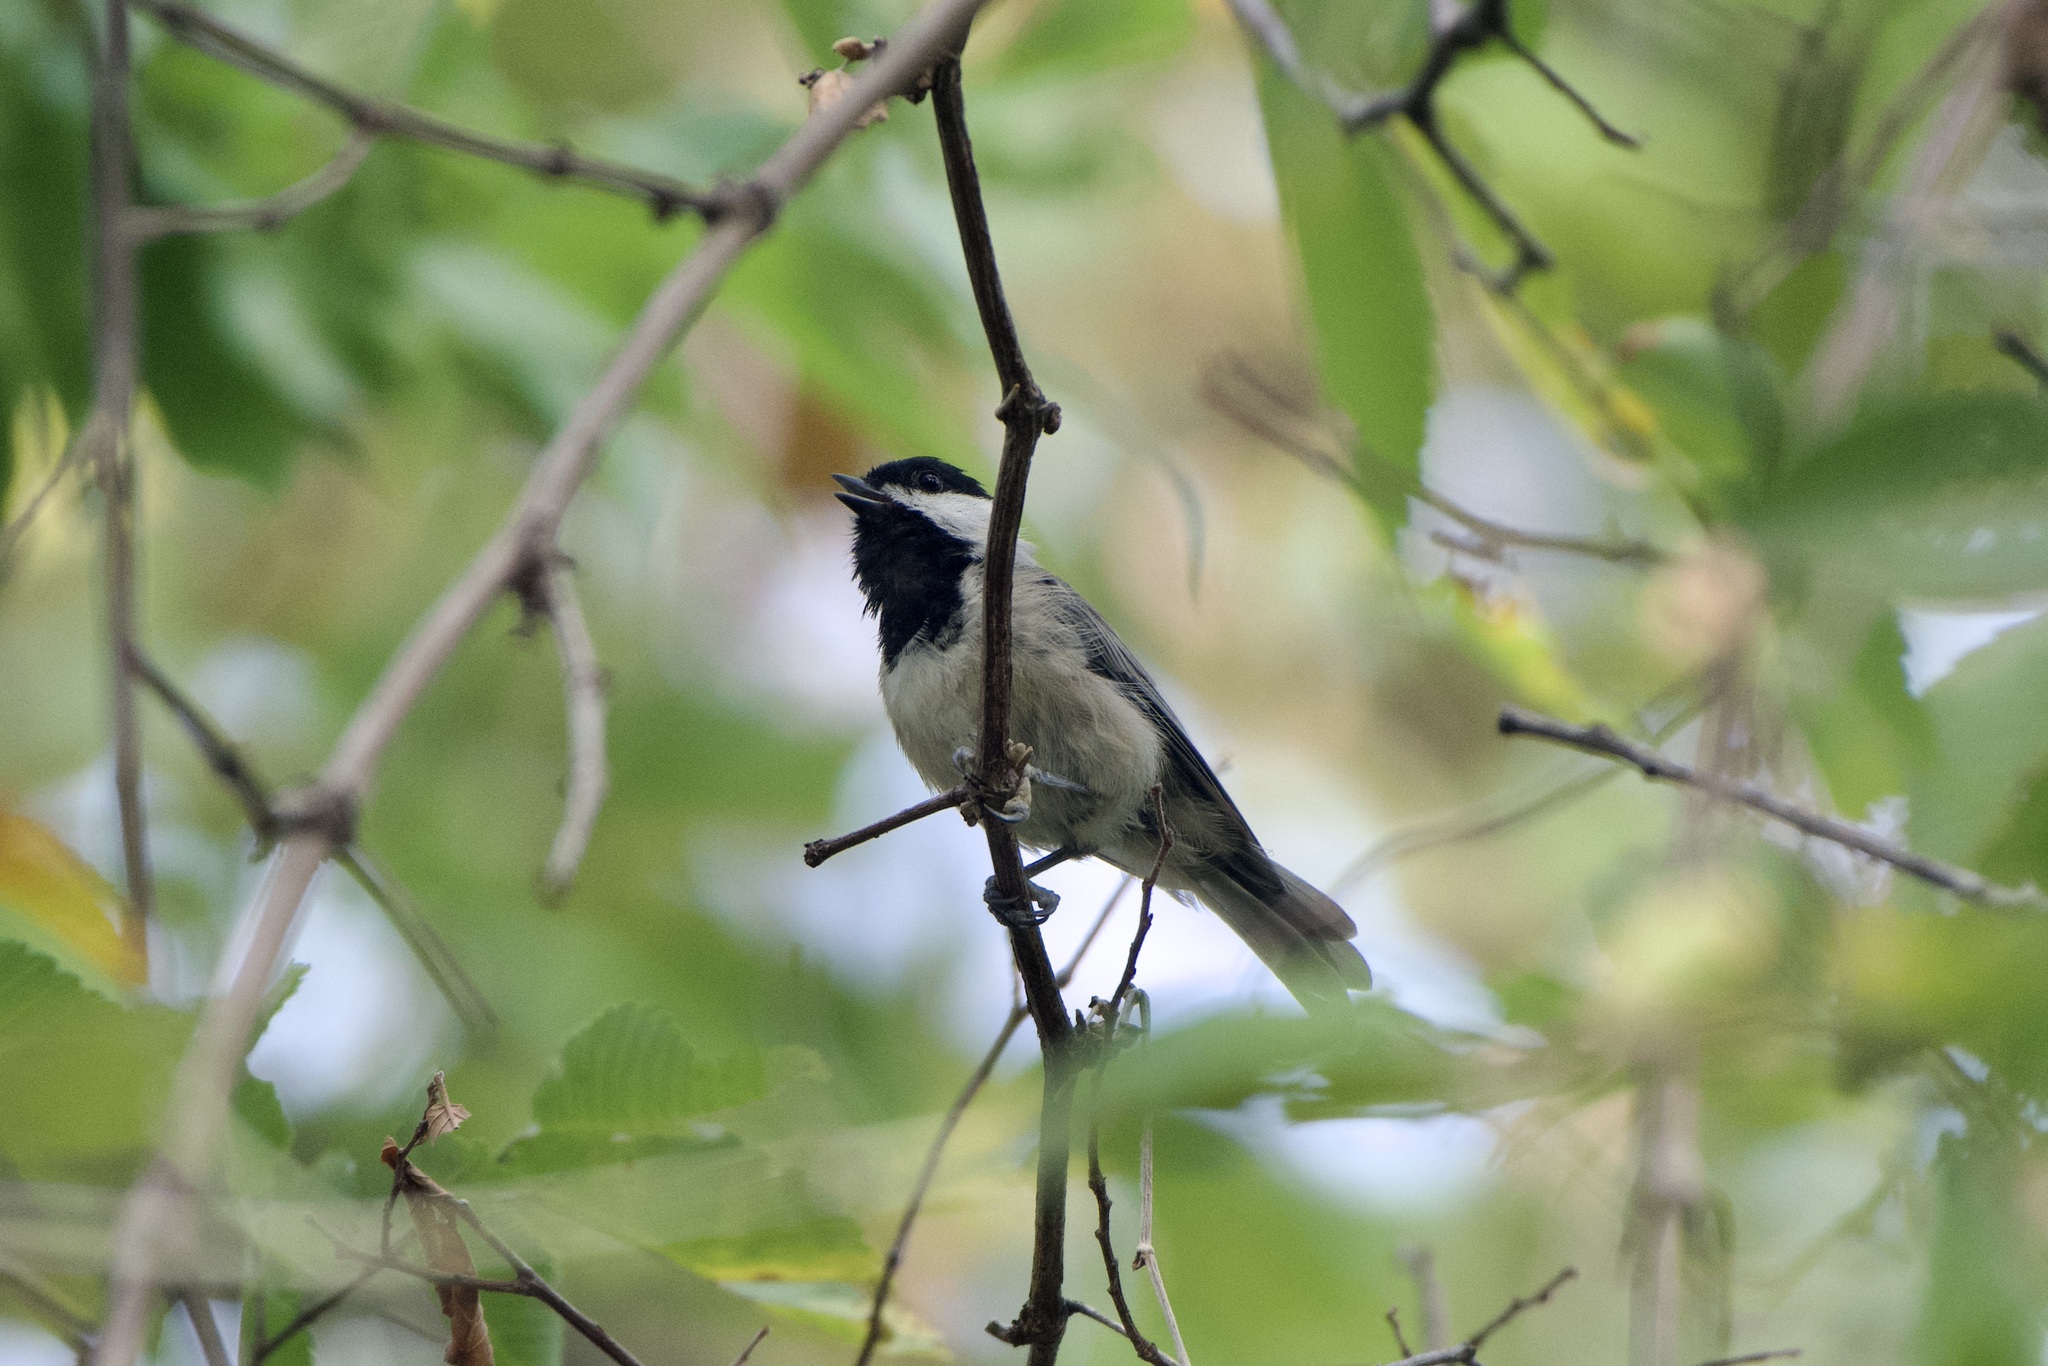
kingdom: Animalia
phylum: Chordata
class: Aves
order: Passeriformes
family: Paridae
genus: Poecile
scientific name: Poecile carolinensis
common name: Carolina chickadee
